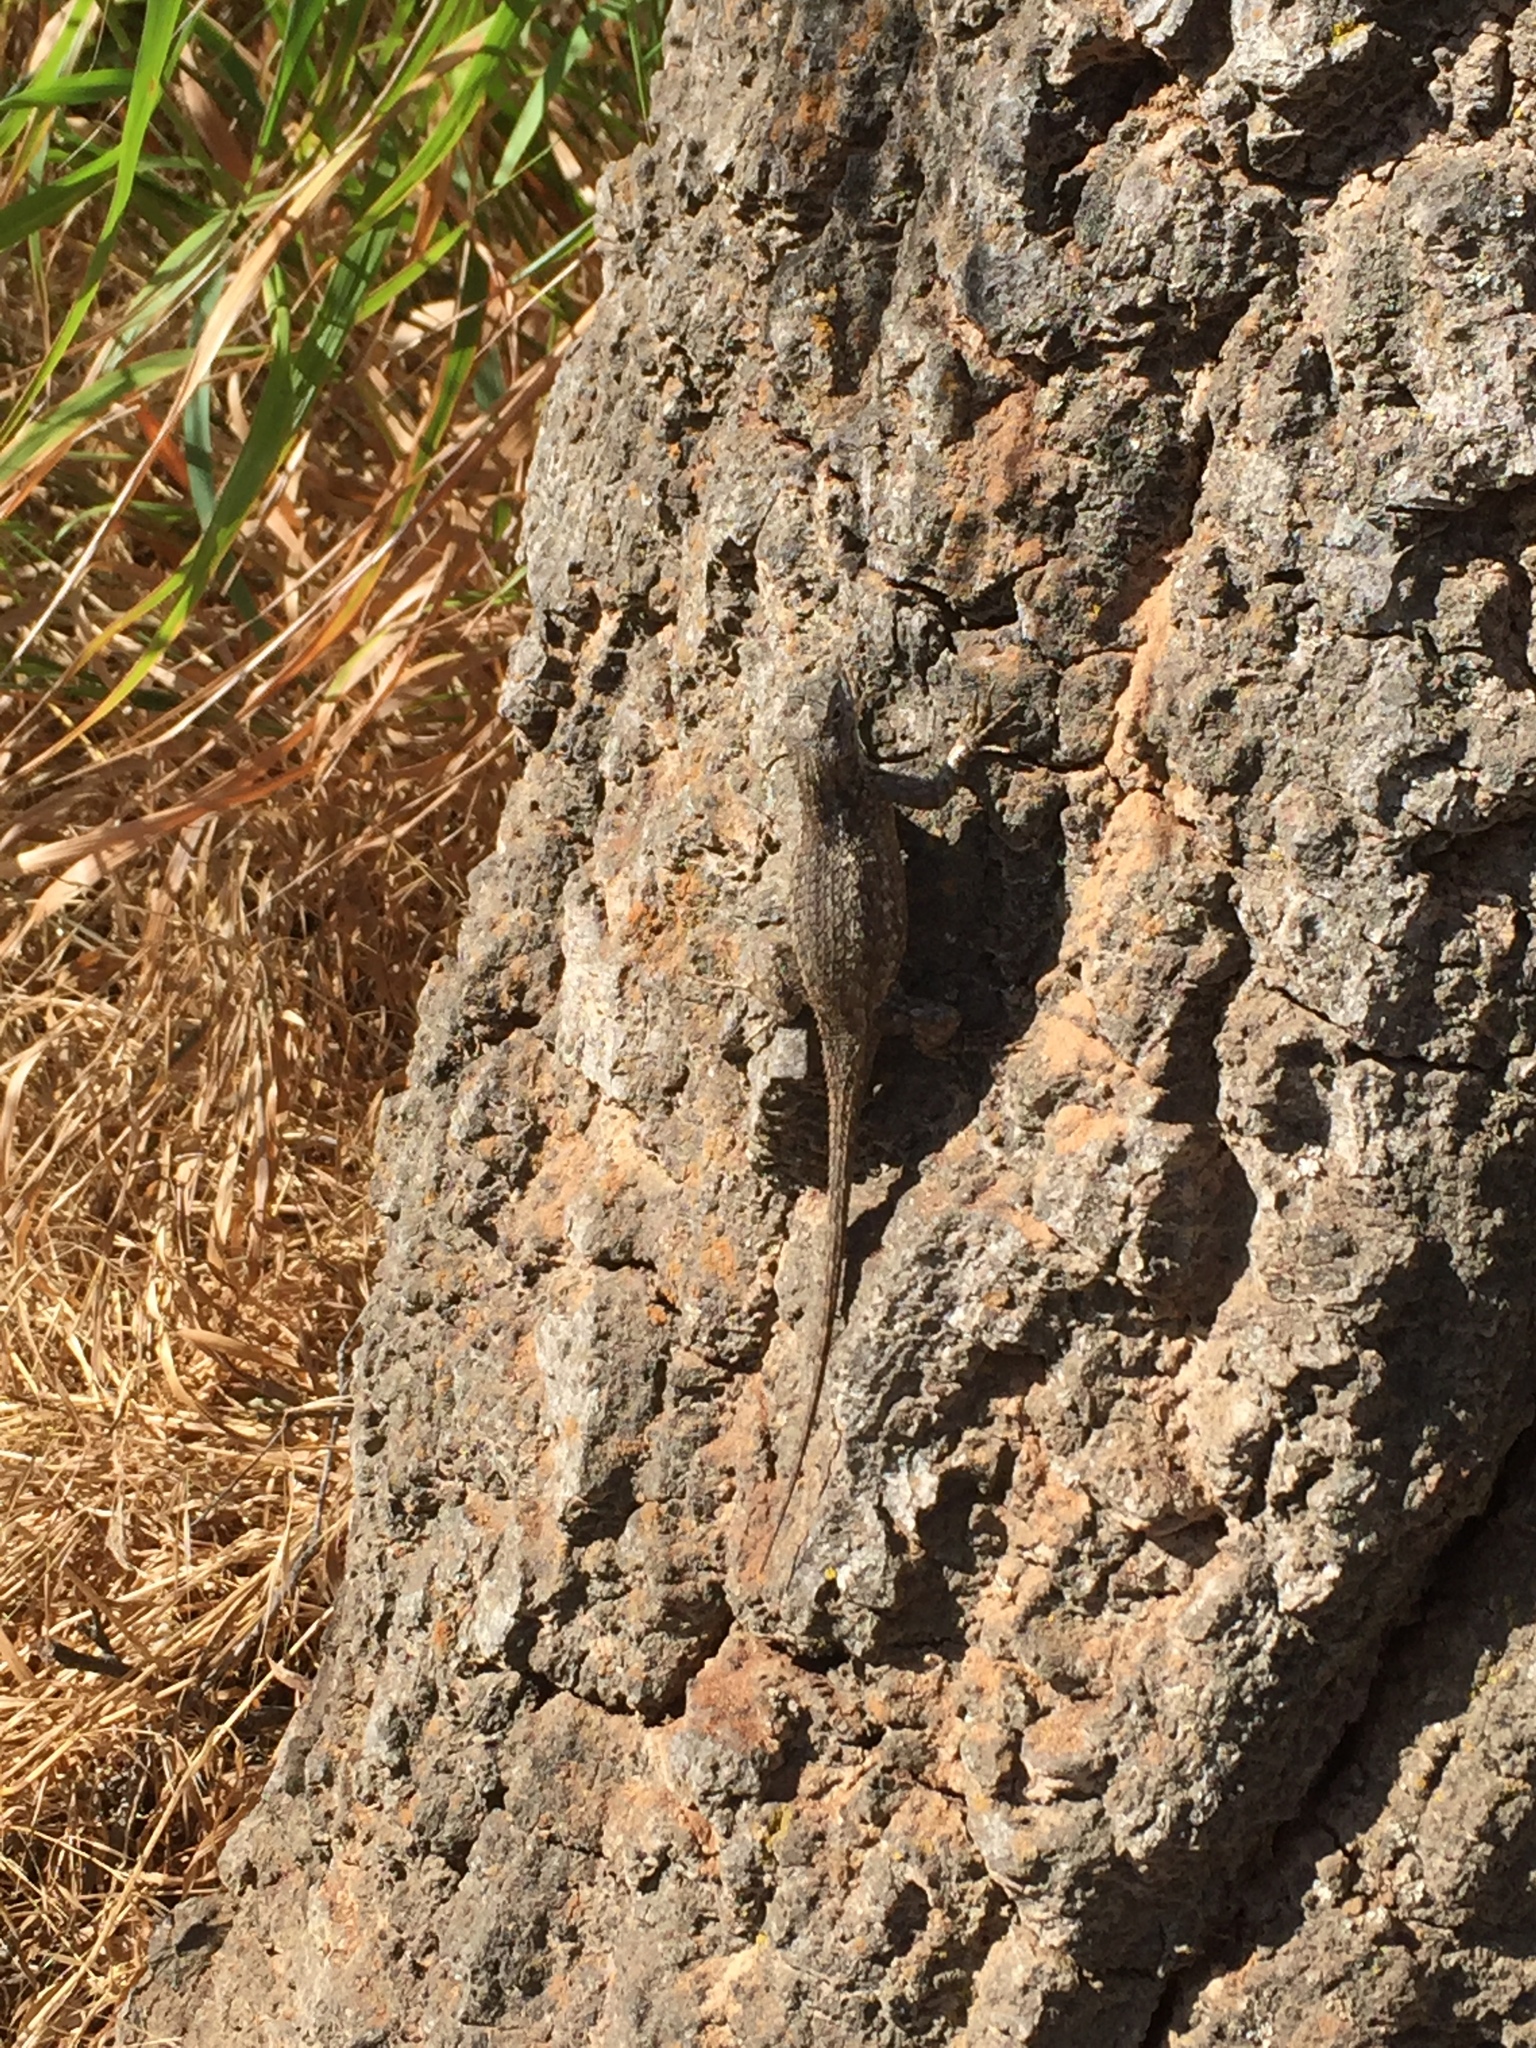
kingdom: Animalia
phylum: Chordata
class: Squamata
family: Phrynosomatidae
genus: Sceloporus
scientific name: Sceloporus occidentalis
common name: Western fence lizard
